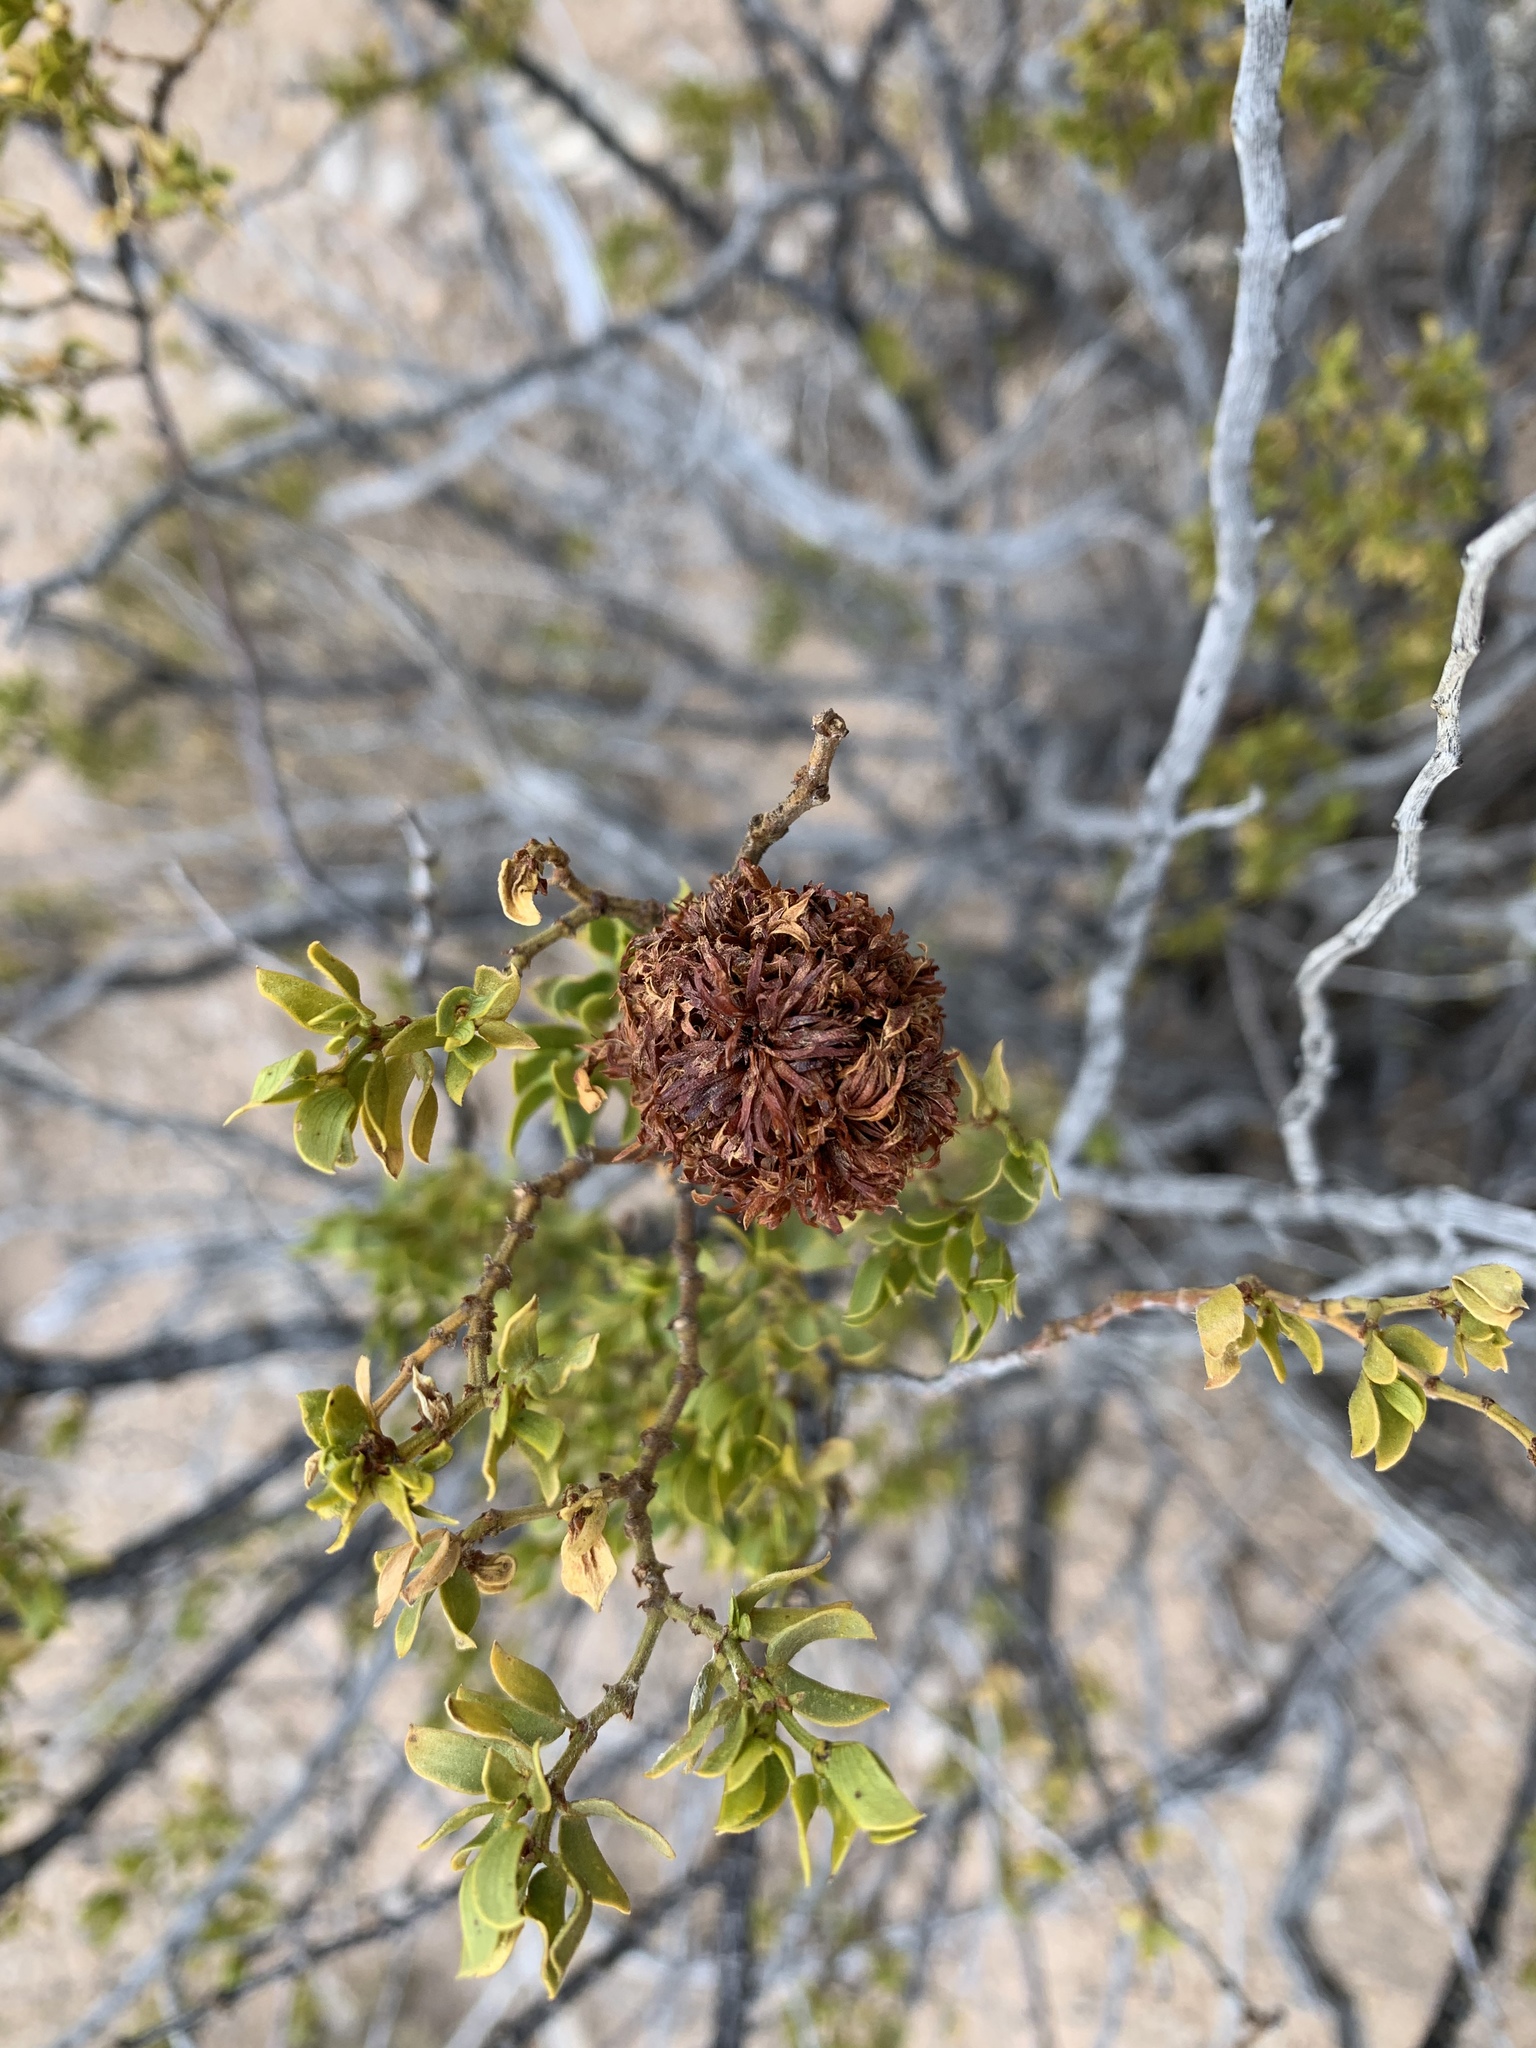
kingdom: Animalia
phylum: Arthropoda
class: Insecta
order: Diptera
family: Cecidomyiidae
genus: Asphondylia
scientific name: Asphondylia auripila
